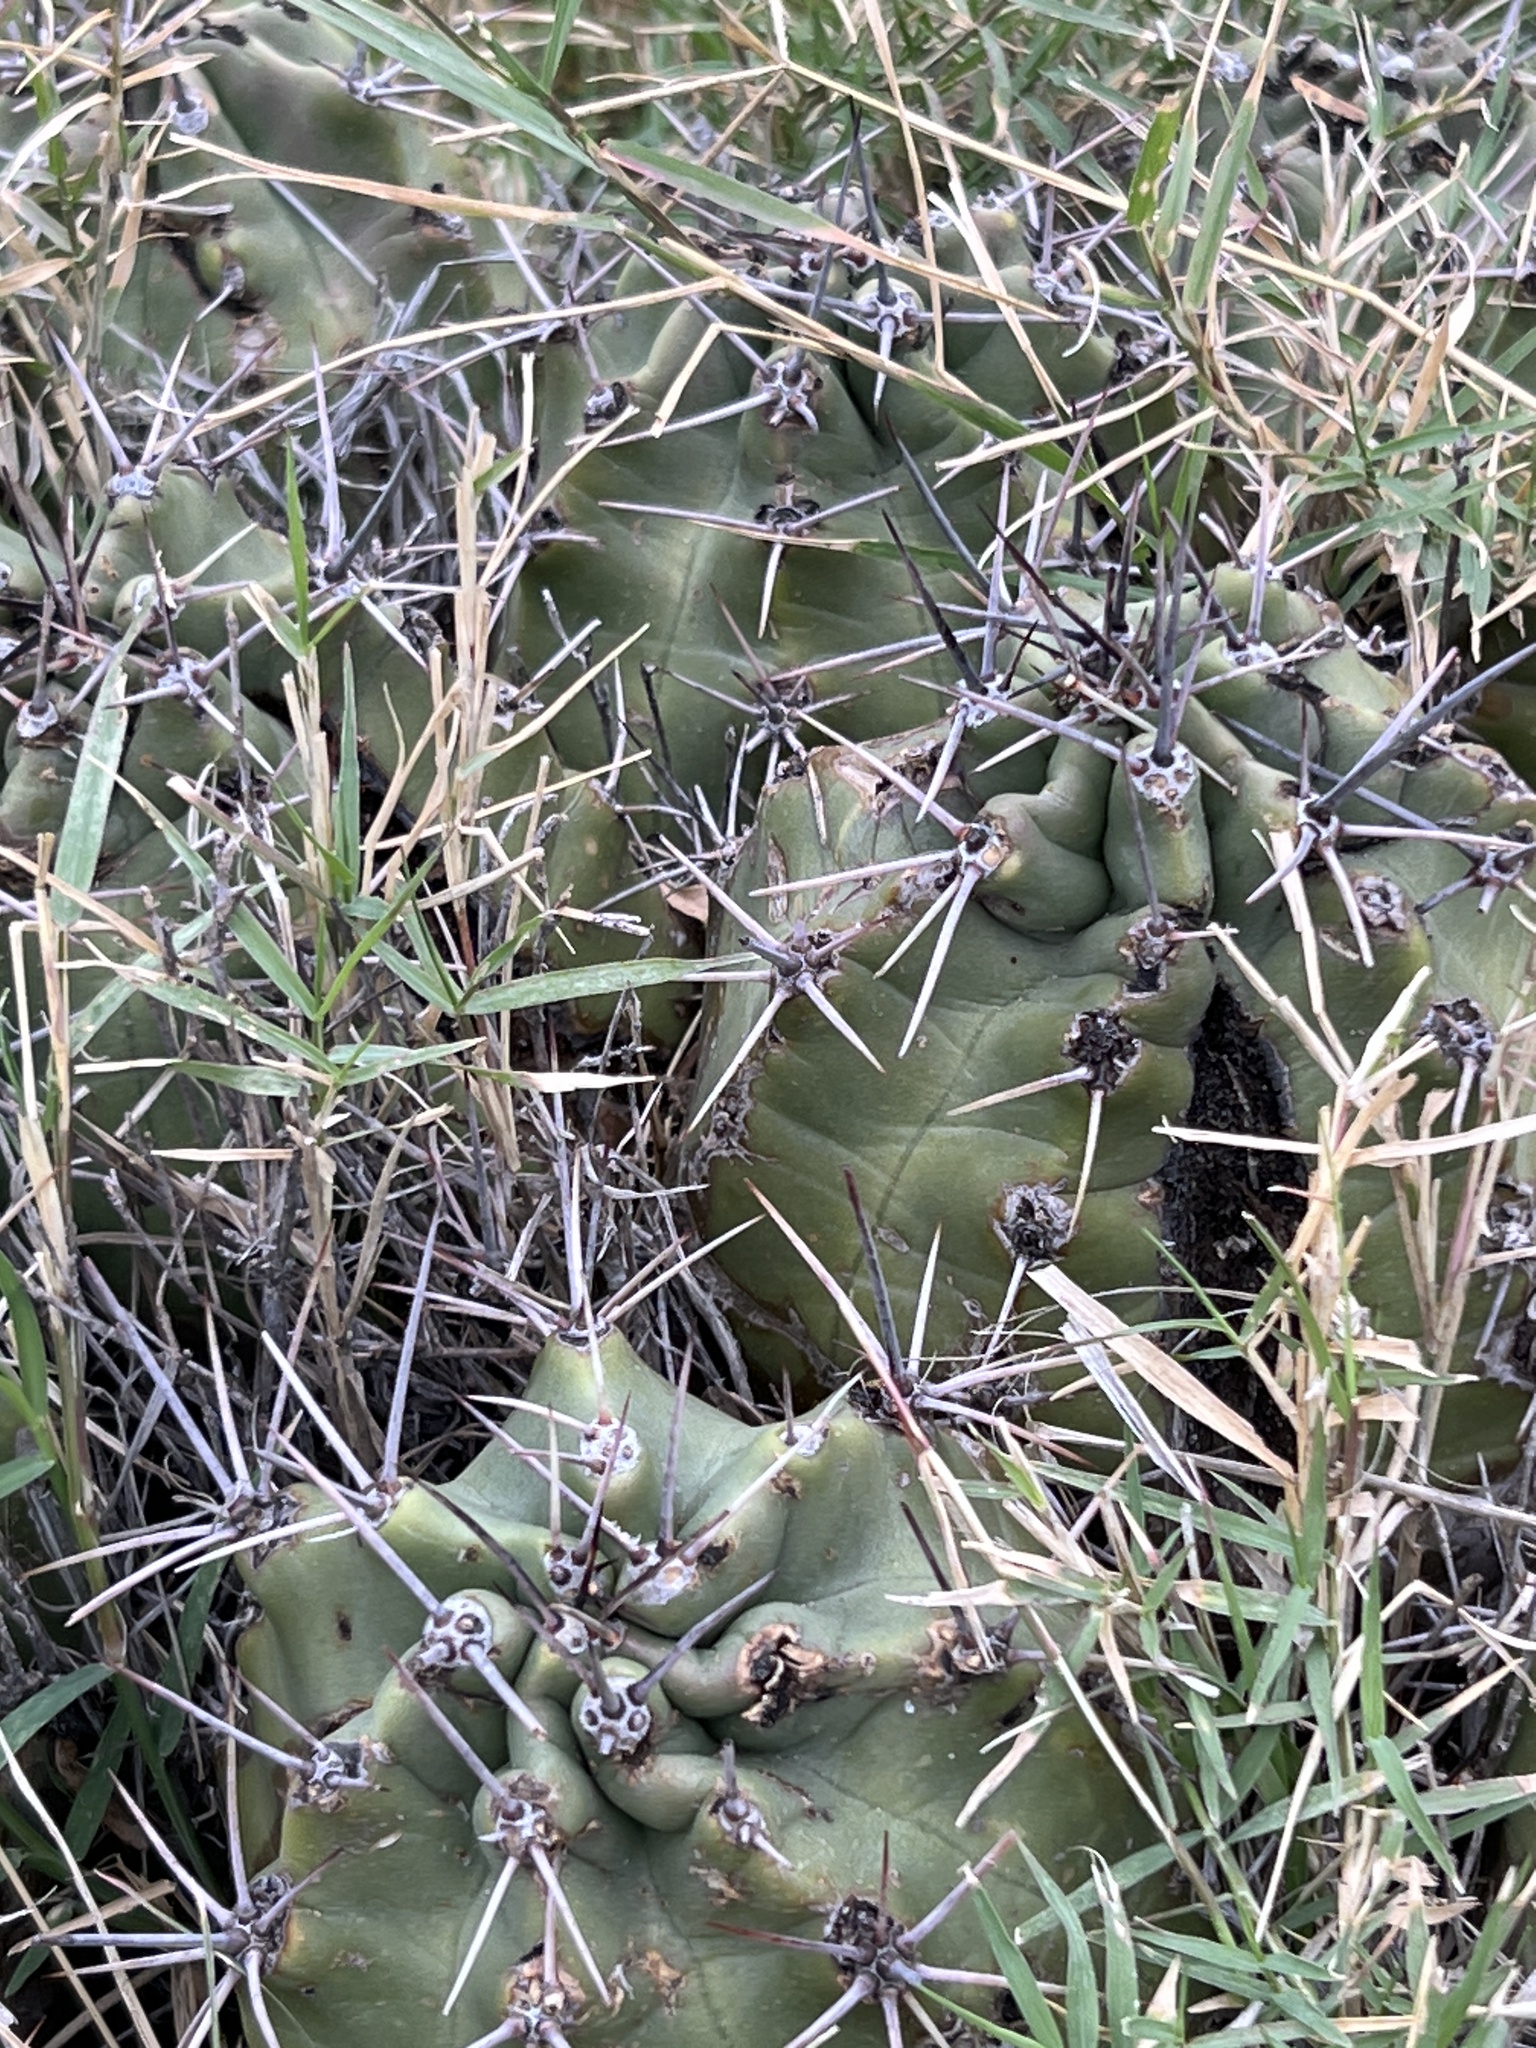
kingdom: Plantae
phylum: Tracheophyta
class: Magnoliopsida
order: Caryophyllales
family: Cactaceae
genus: Echinocereus
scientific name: Echinocereus coccineus
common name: Scarlet hedgehog cactus
